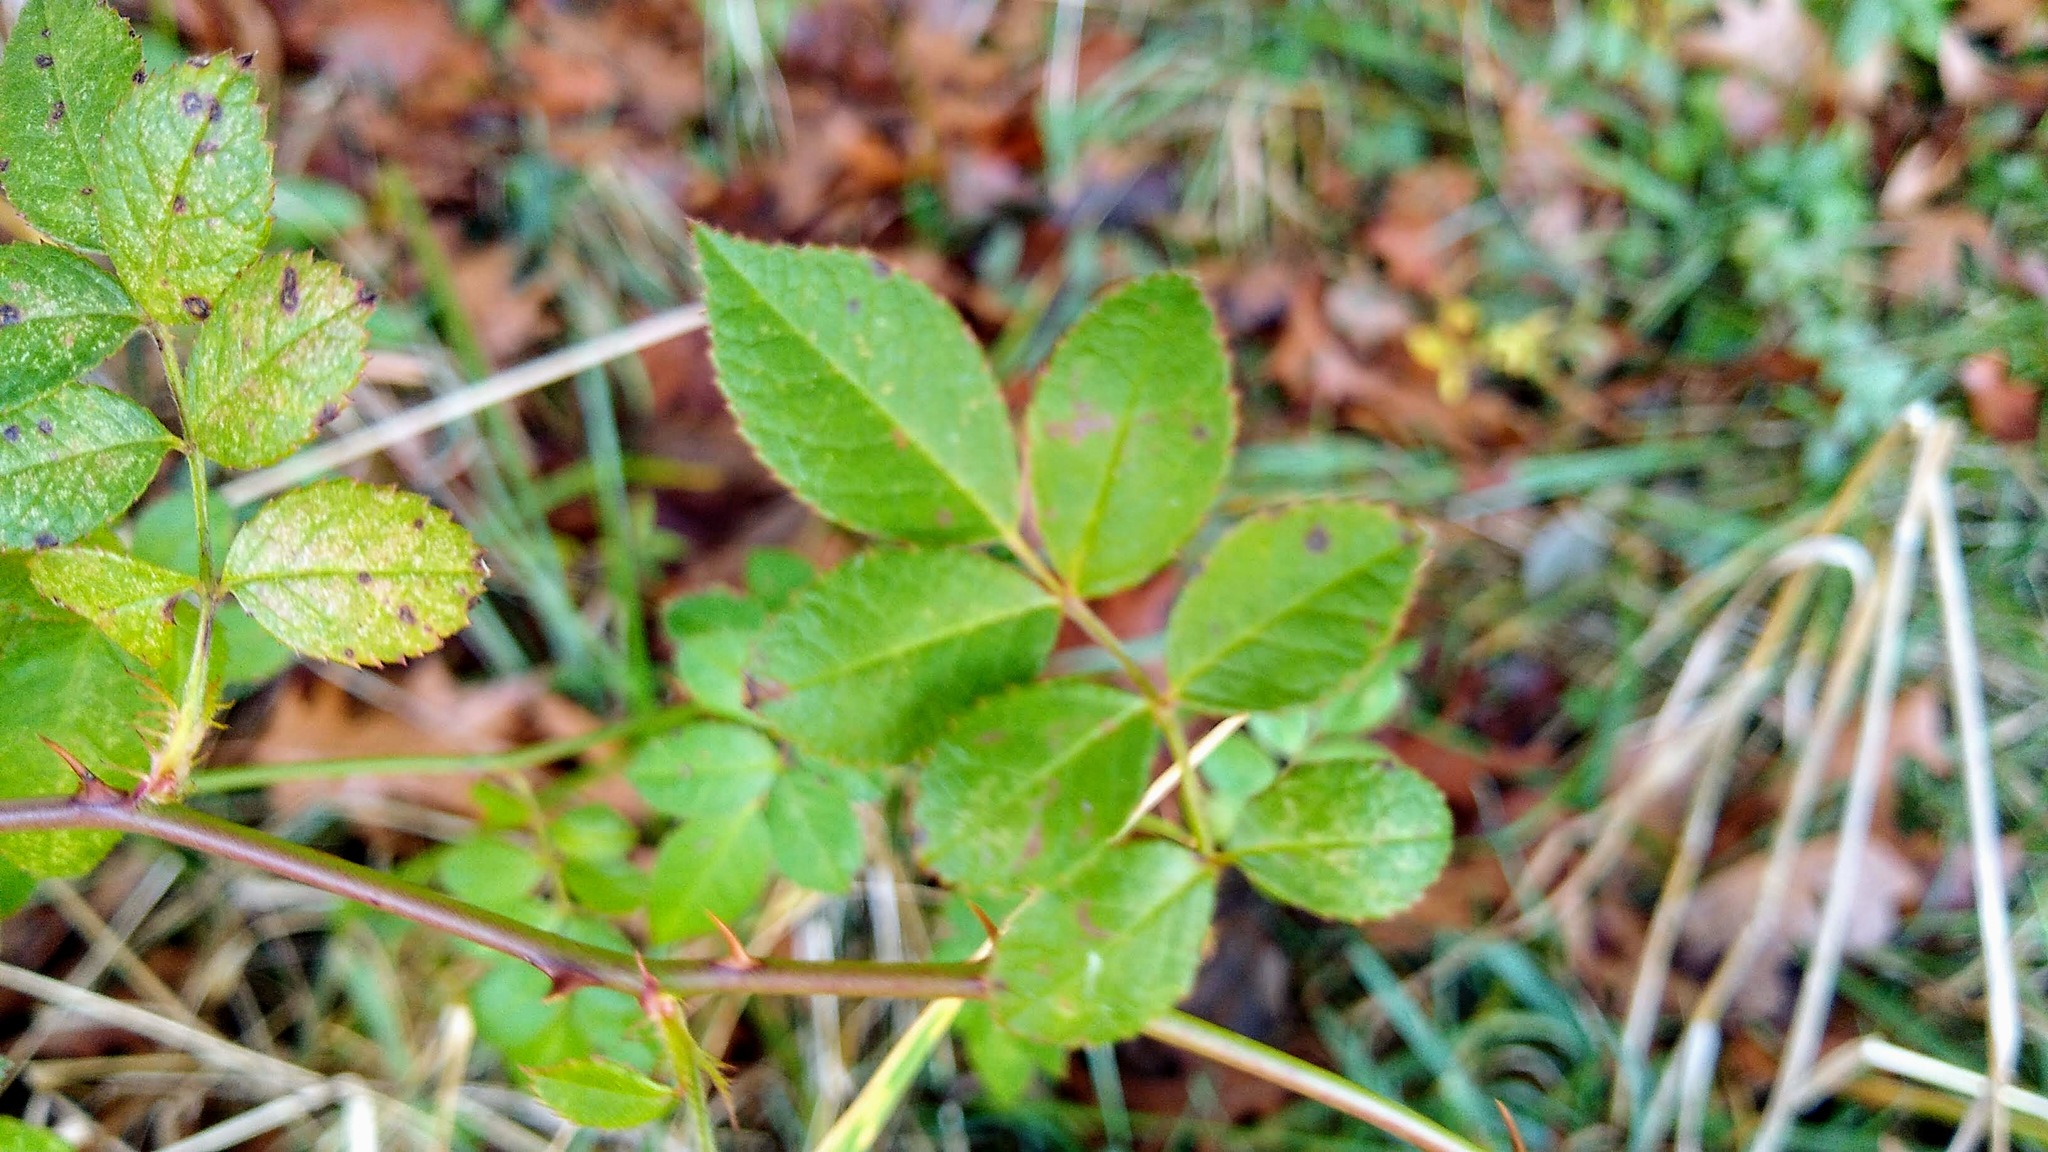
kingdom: Plantae
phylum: Tracheophyta
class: Magnoliopsida
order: Rosales
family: Rosaceae
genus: Rosa
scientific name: Rosa multiflora
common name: Multiflora rose
